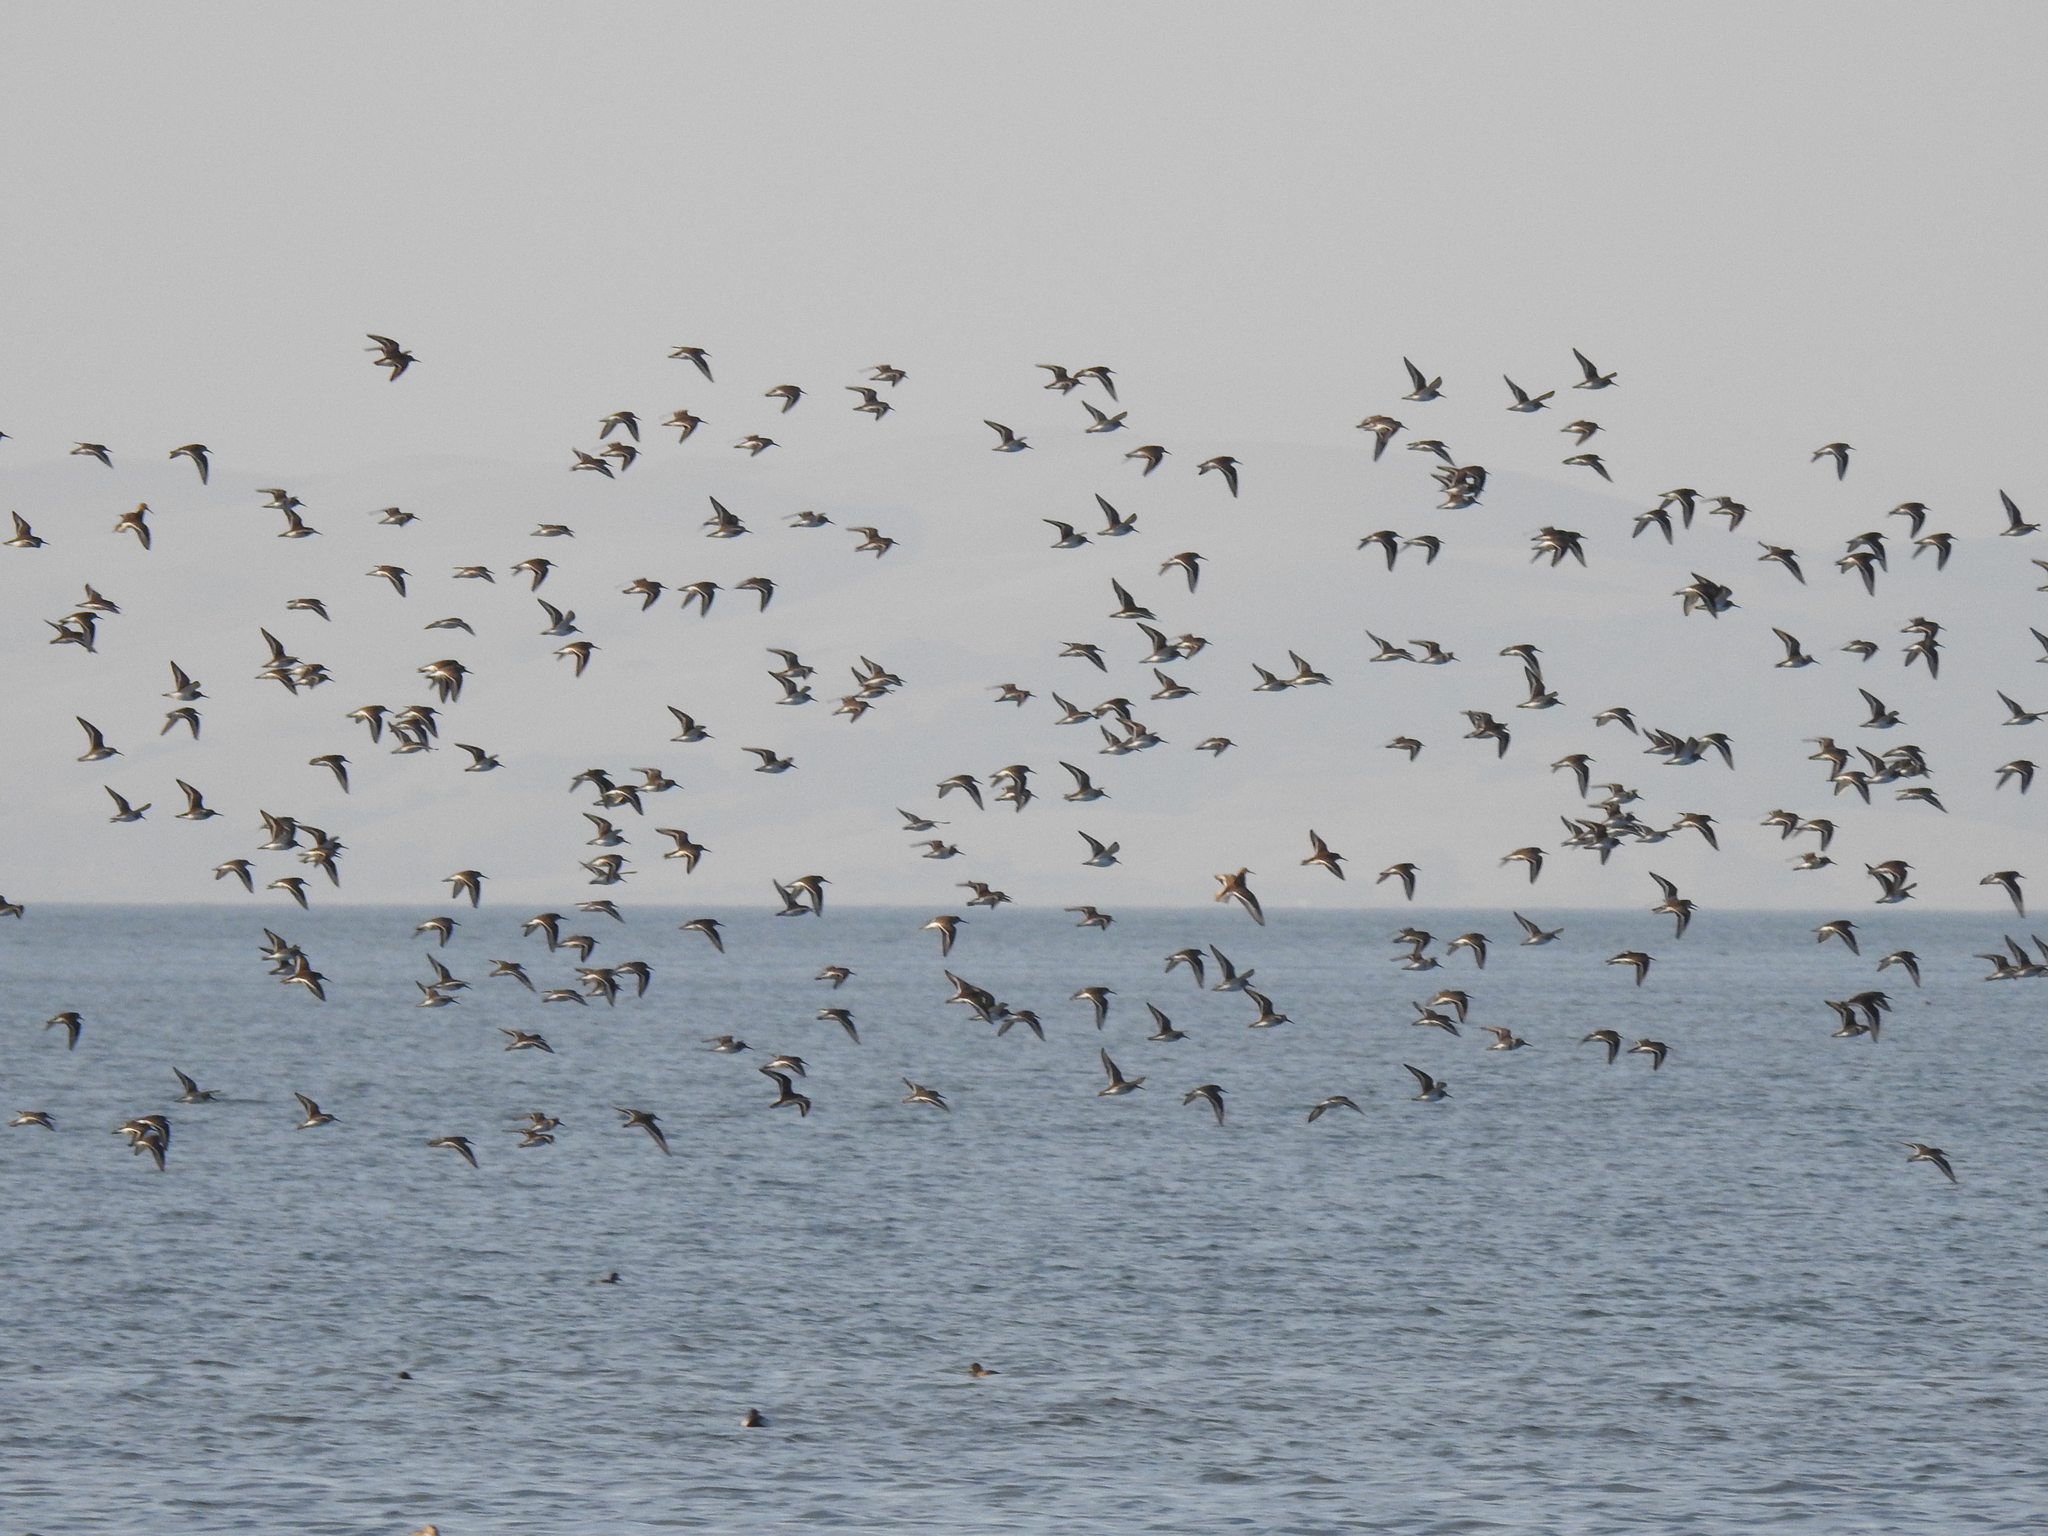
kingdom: Animalia
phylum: Chordata
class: Aves
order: Charadriiformes
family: Scolopacidae
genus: Calidris
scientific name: Calidris alpina
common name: Dunlin
